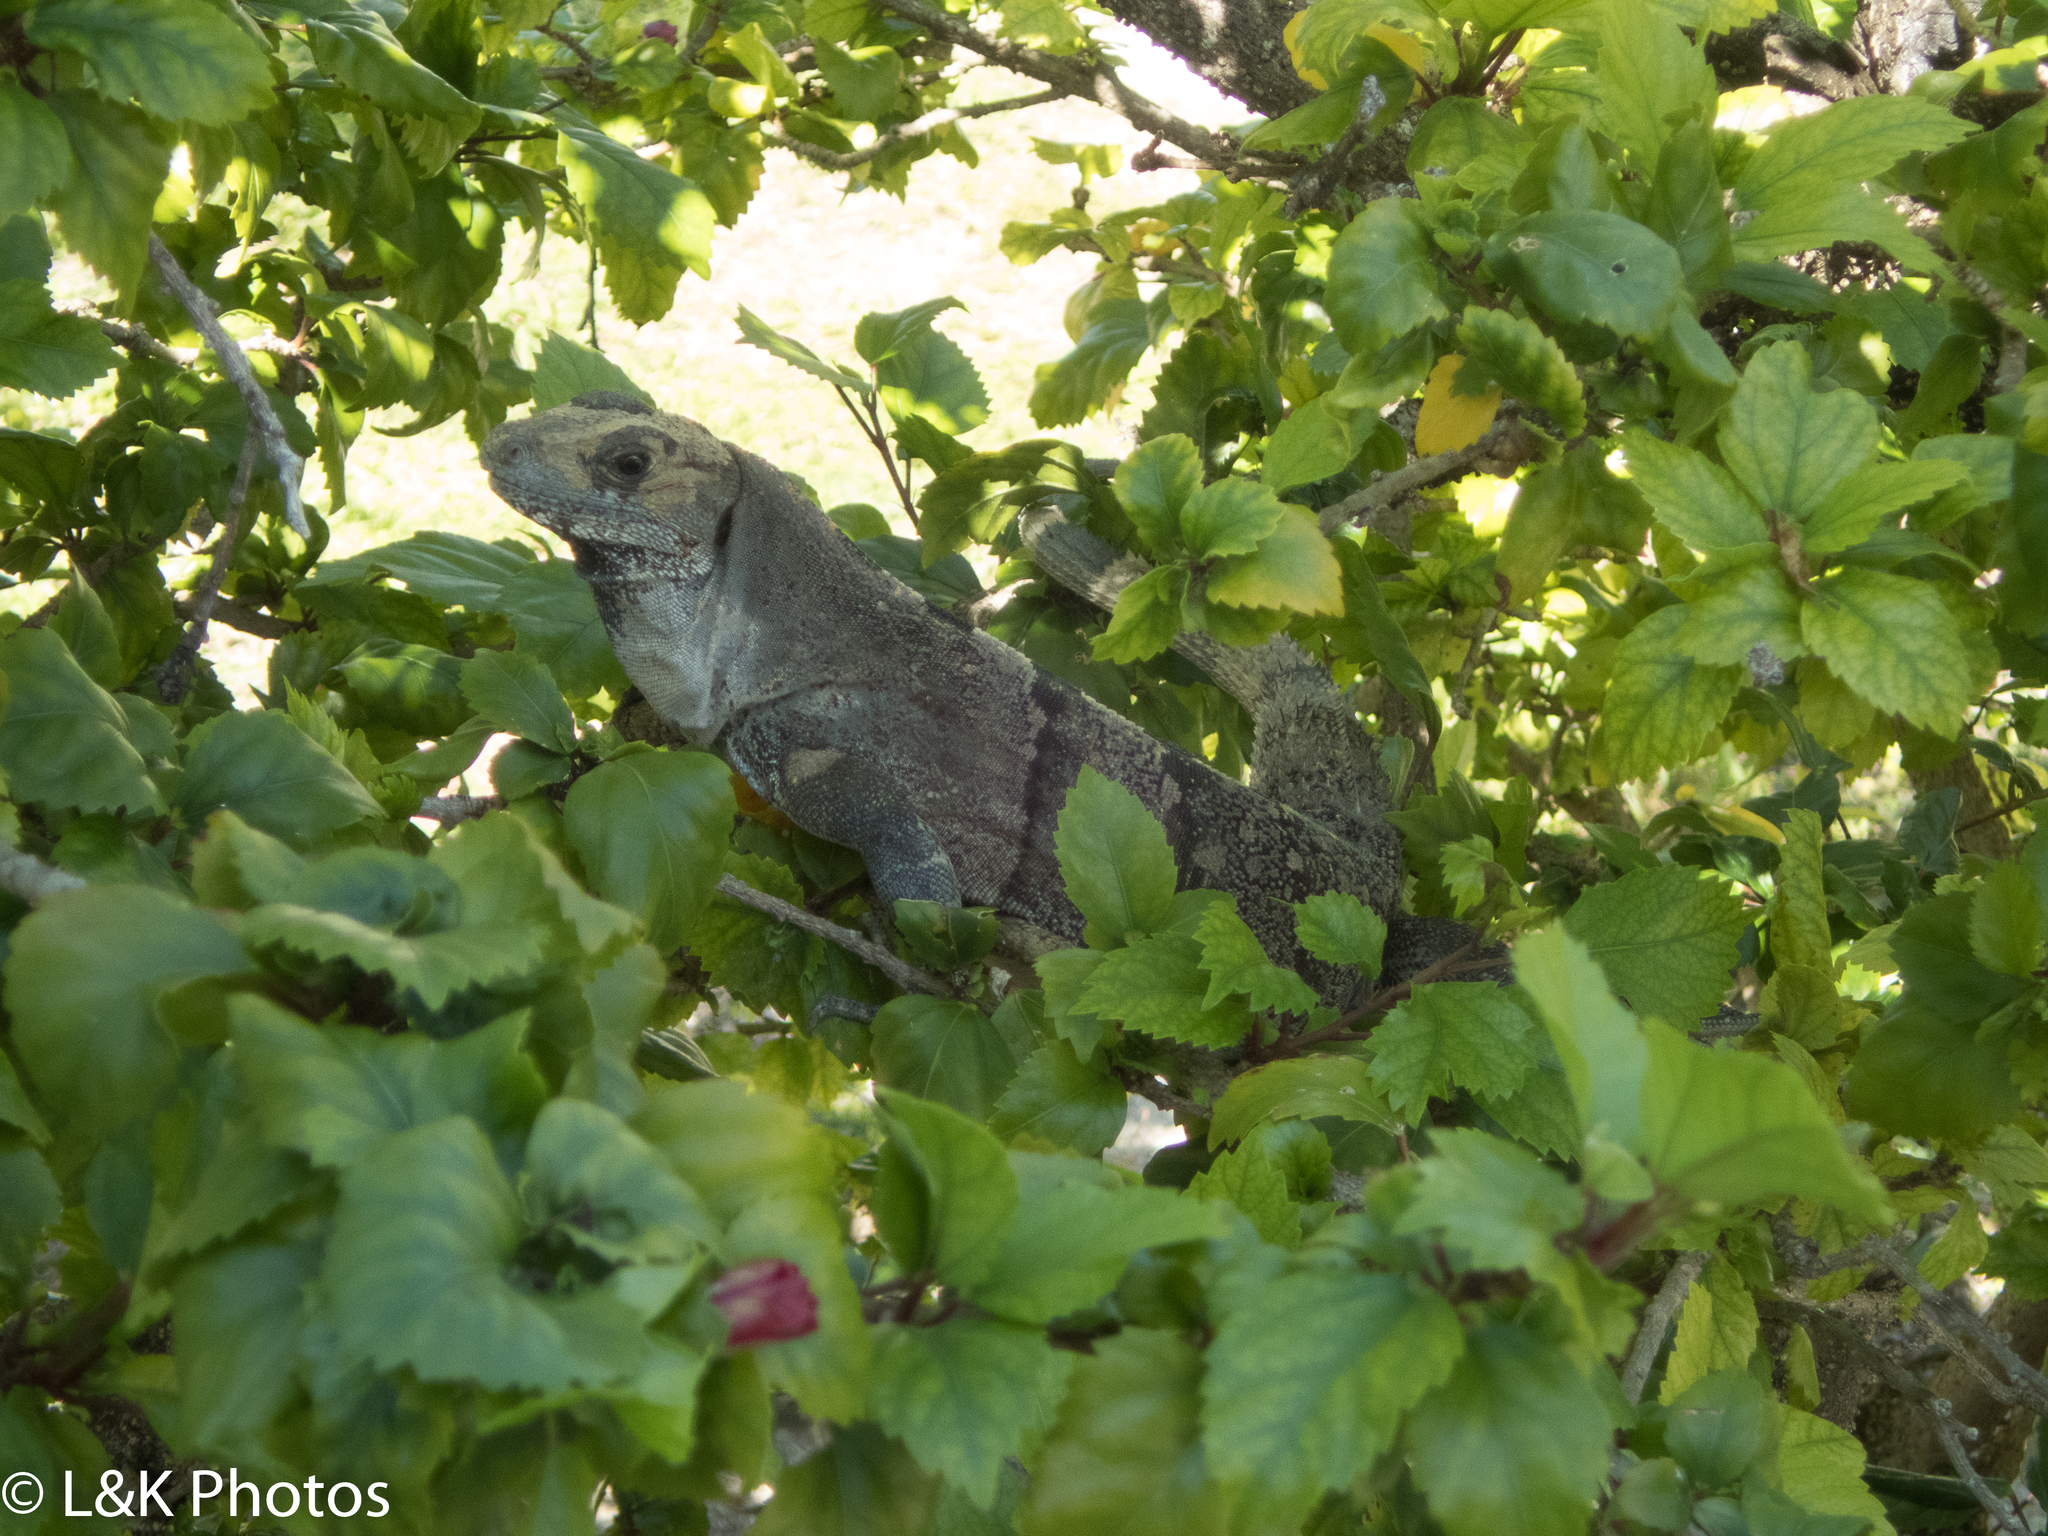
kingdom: Animalia
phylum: Chordata
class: Squamata
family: Iguanidae
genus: Ctenosaura
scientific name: Ctenosaura similis
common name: Black spiny-tailed iguana
